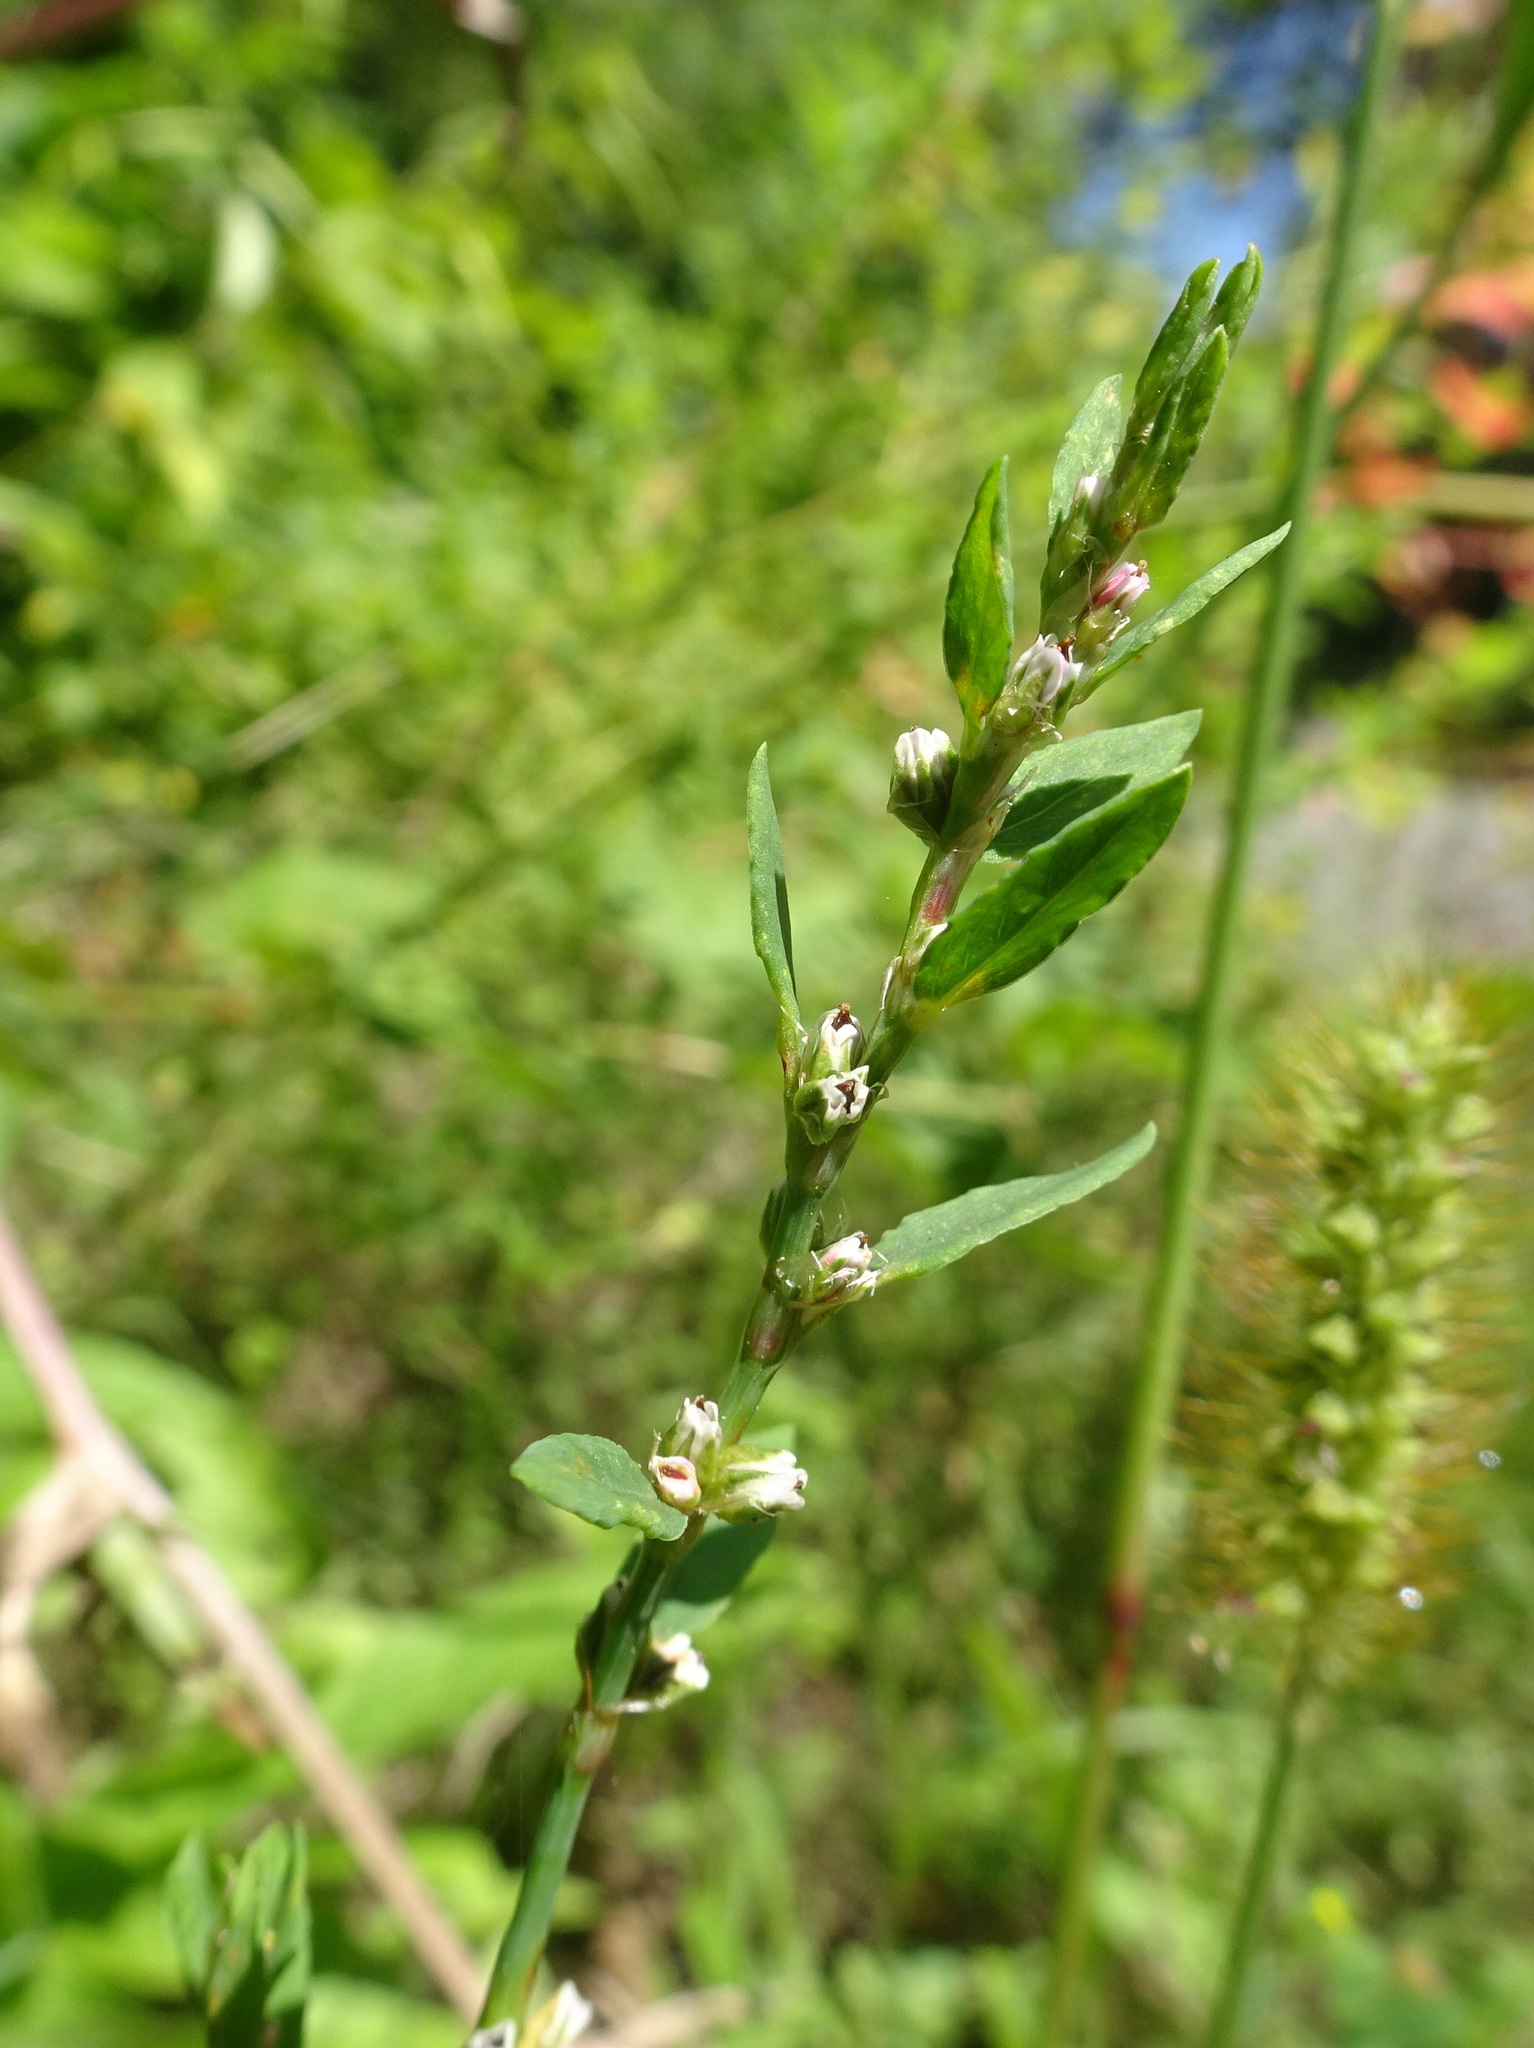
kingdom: Plantae
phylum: Tracheophyta
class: Magnoliopsida
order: Caryophyllales
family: Polygonaceae
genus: Polygonum
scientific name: Polygonum aviculare
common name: Prostrate knotweed
